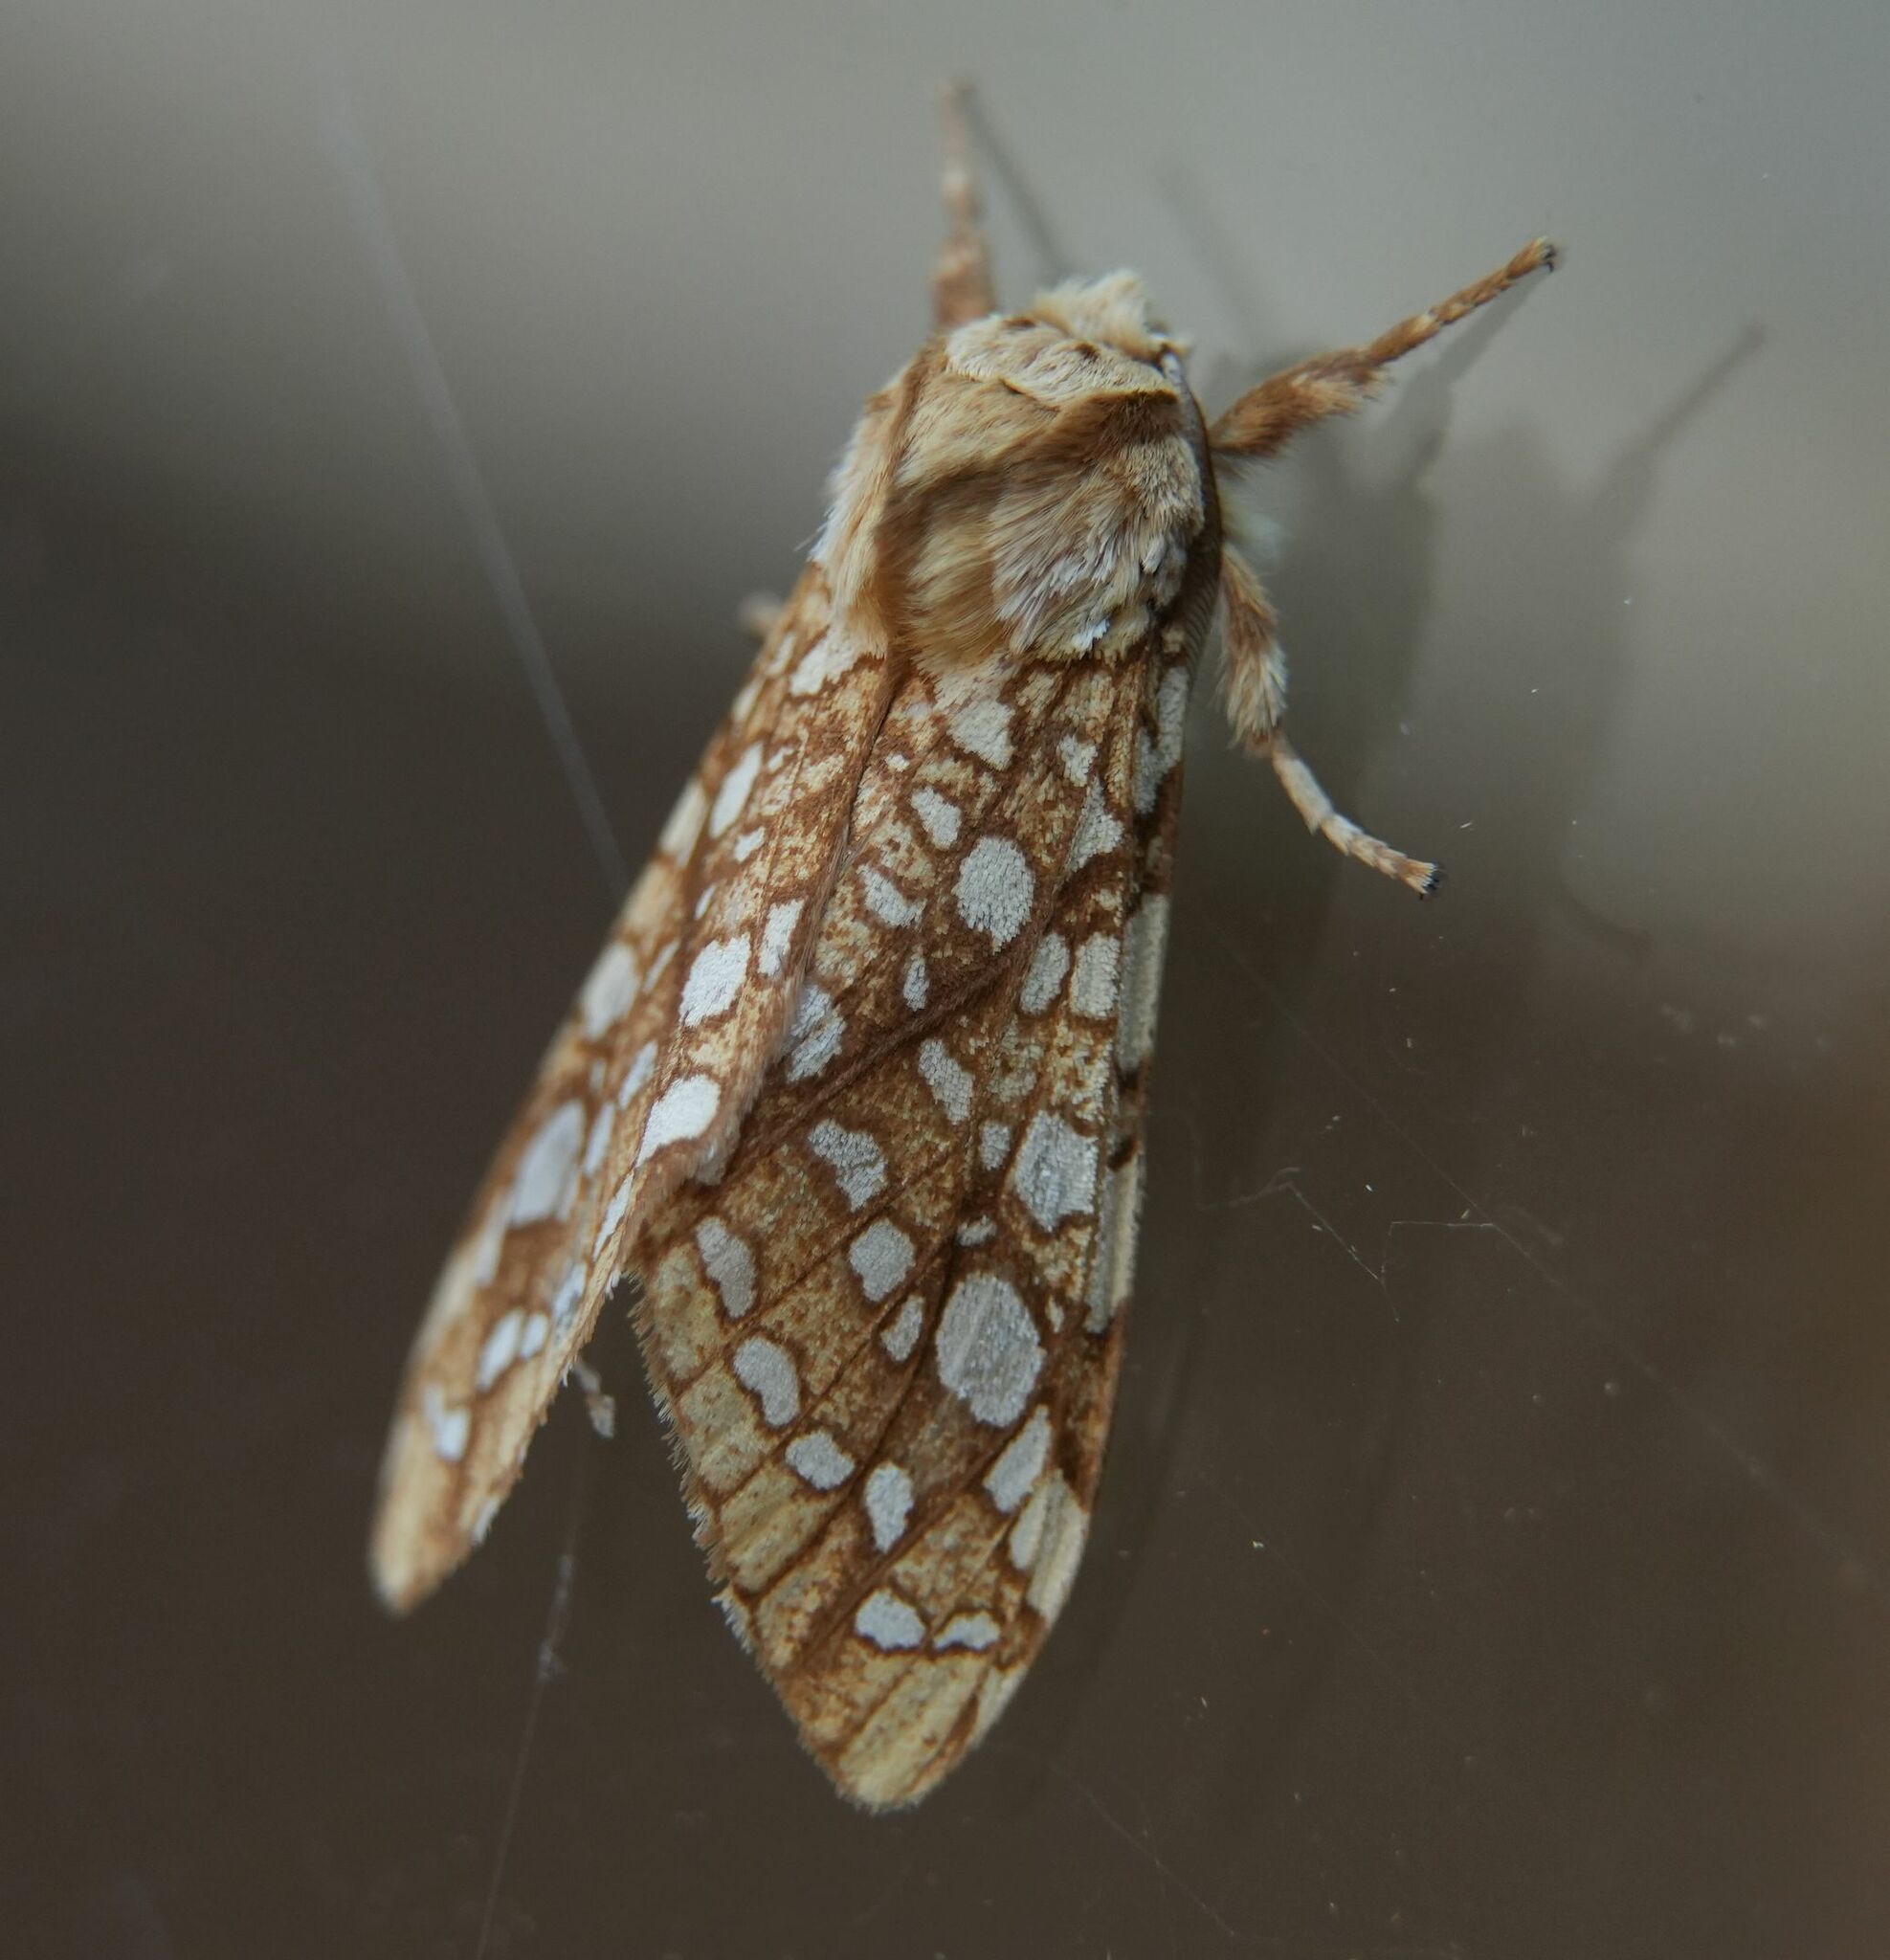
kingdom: Animalia
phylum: Arthropoda
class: Insecta
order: Lepidoptera
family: Erebidae
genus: Lophocampa
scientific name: Lophocampa caryae
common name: Hickory tussock moth
